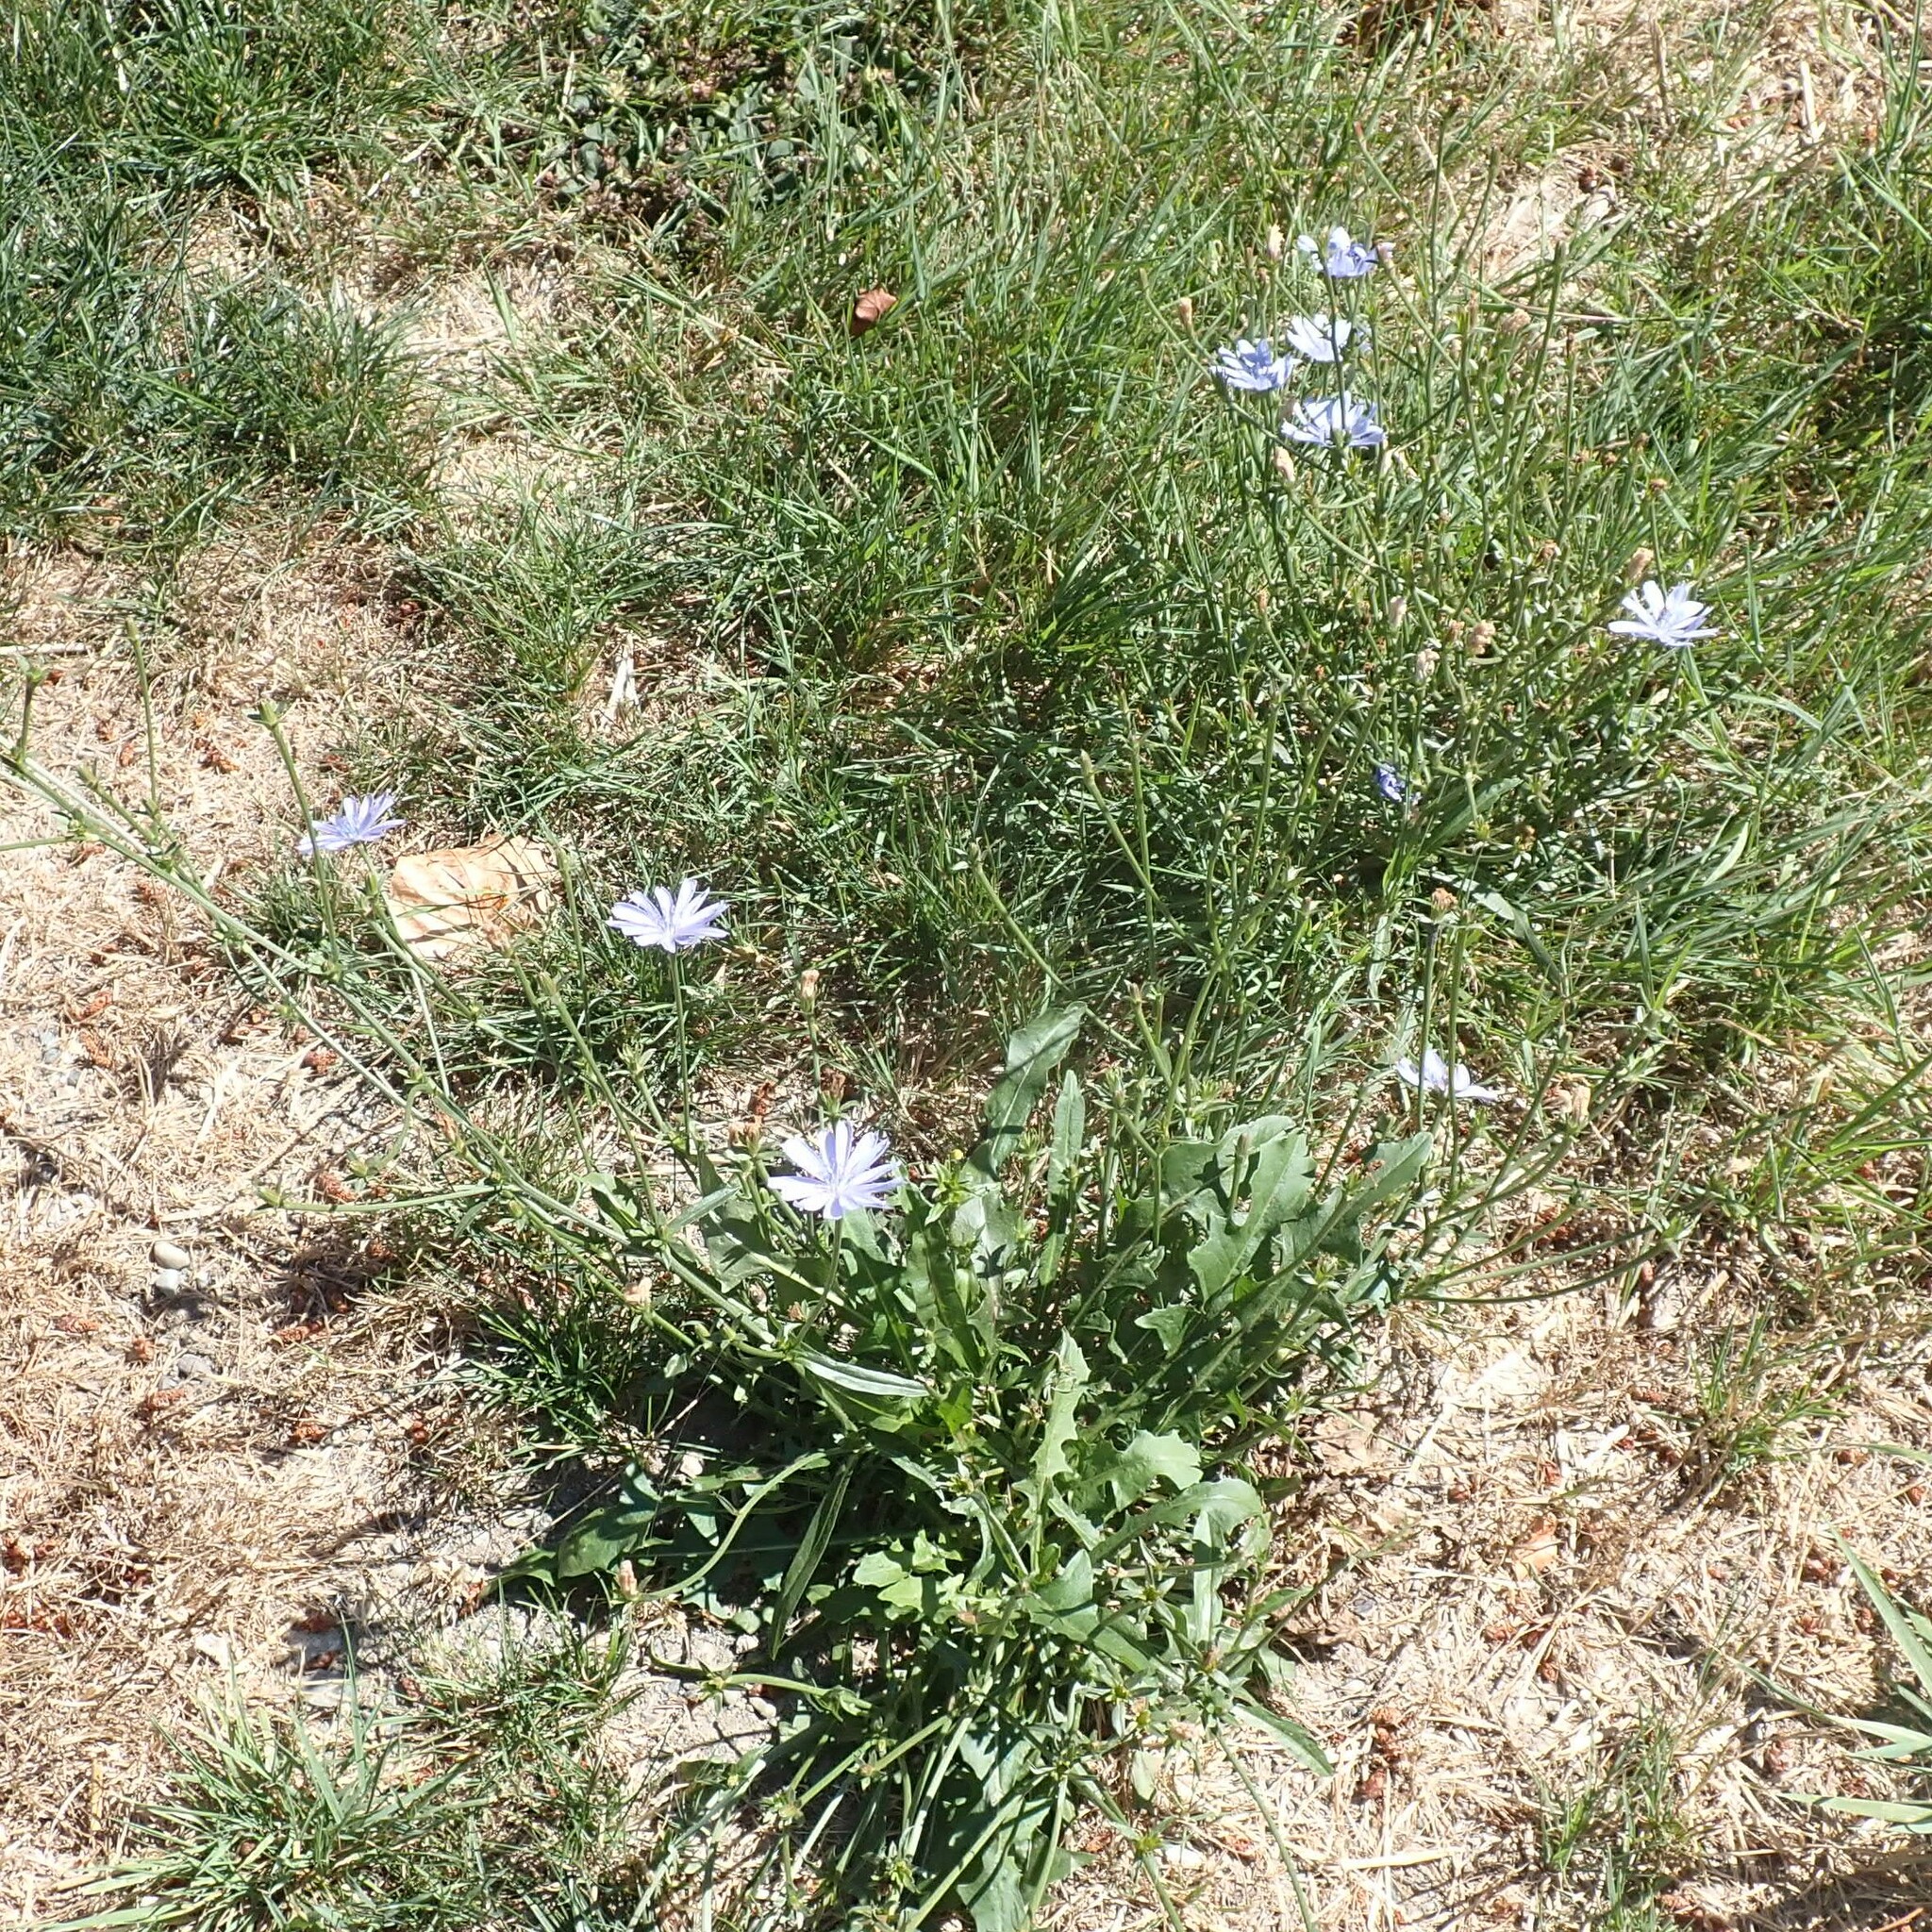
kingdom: Plantae
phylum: Tracheophyta
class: Magnoliopsida
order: Asterales
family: Asteraceae
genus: Cichorium
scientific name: Cichorium intybus
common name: Chicory
